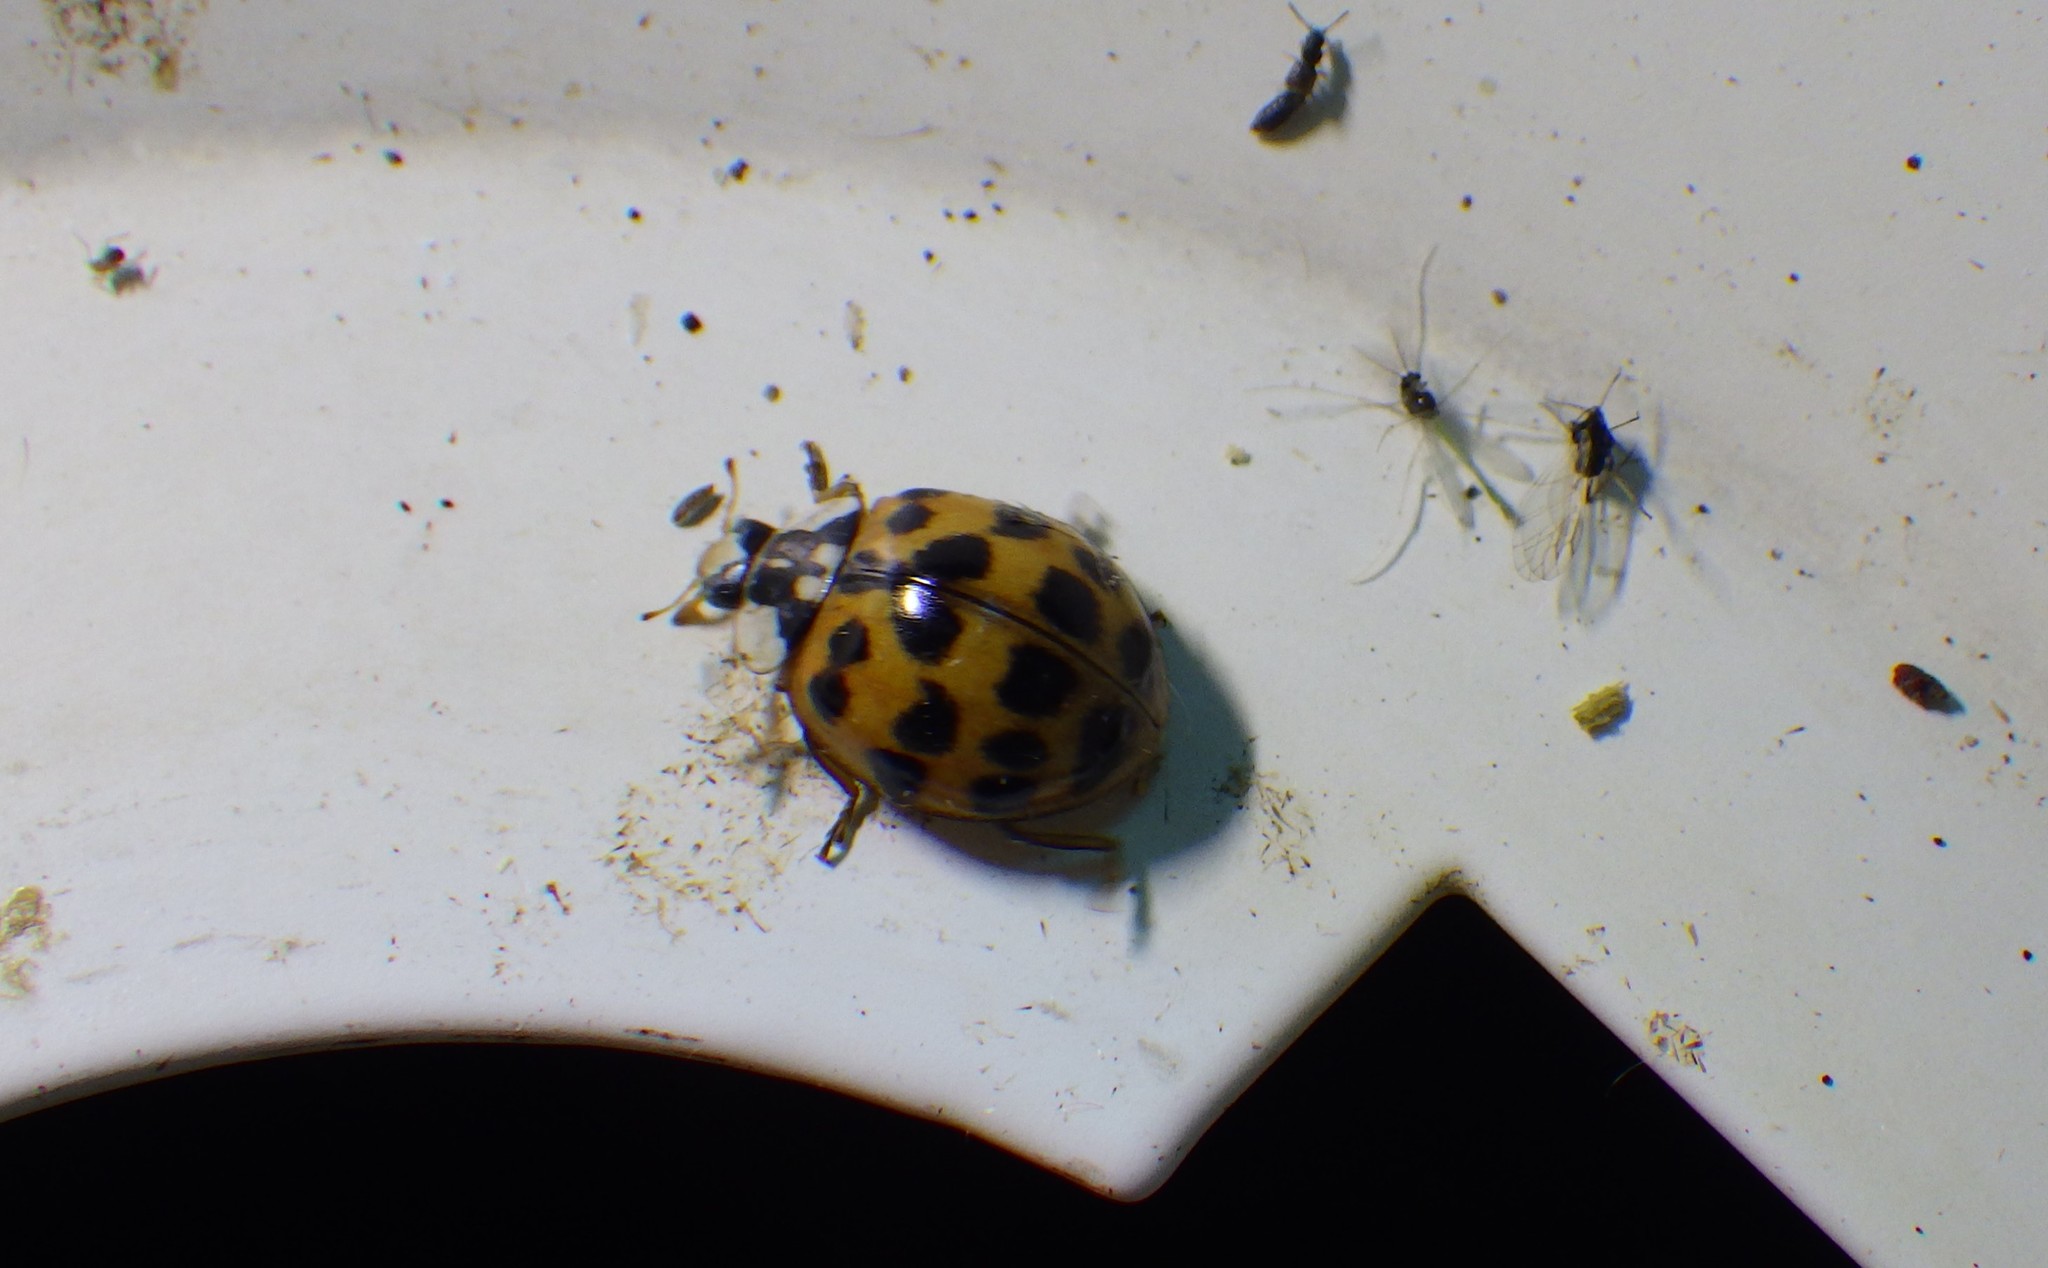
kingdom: Animalia
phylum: Arthropoda
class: Insecta
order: Coleoptera
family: Coccinellidae
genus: Harmonia
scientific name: Harmonia axyridis
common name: Harlequin ladybird
